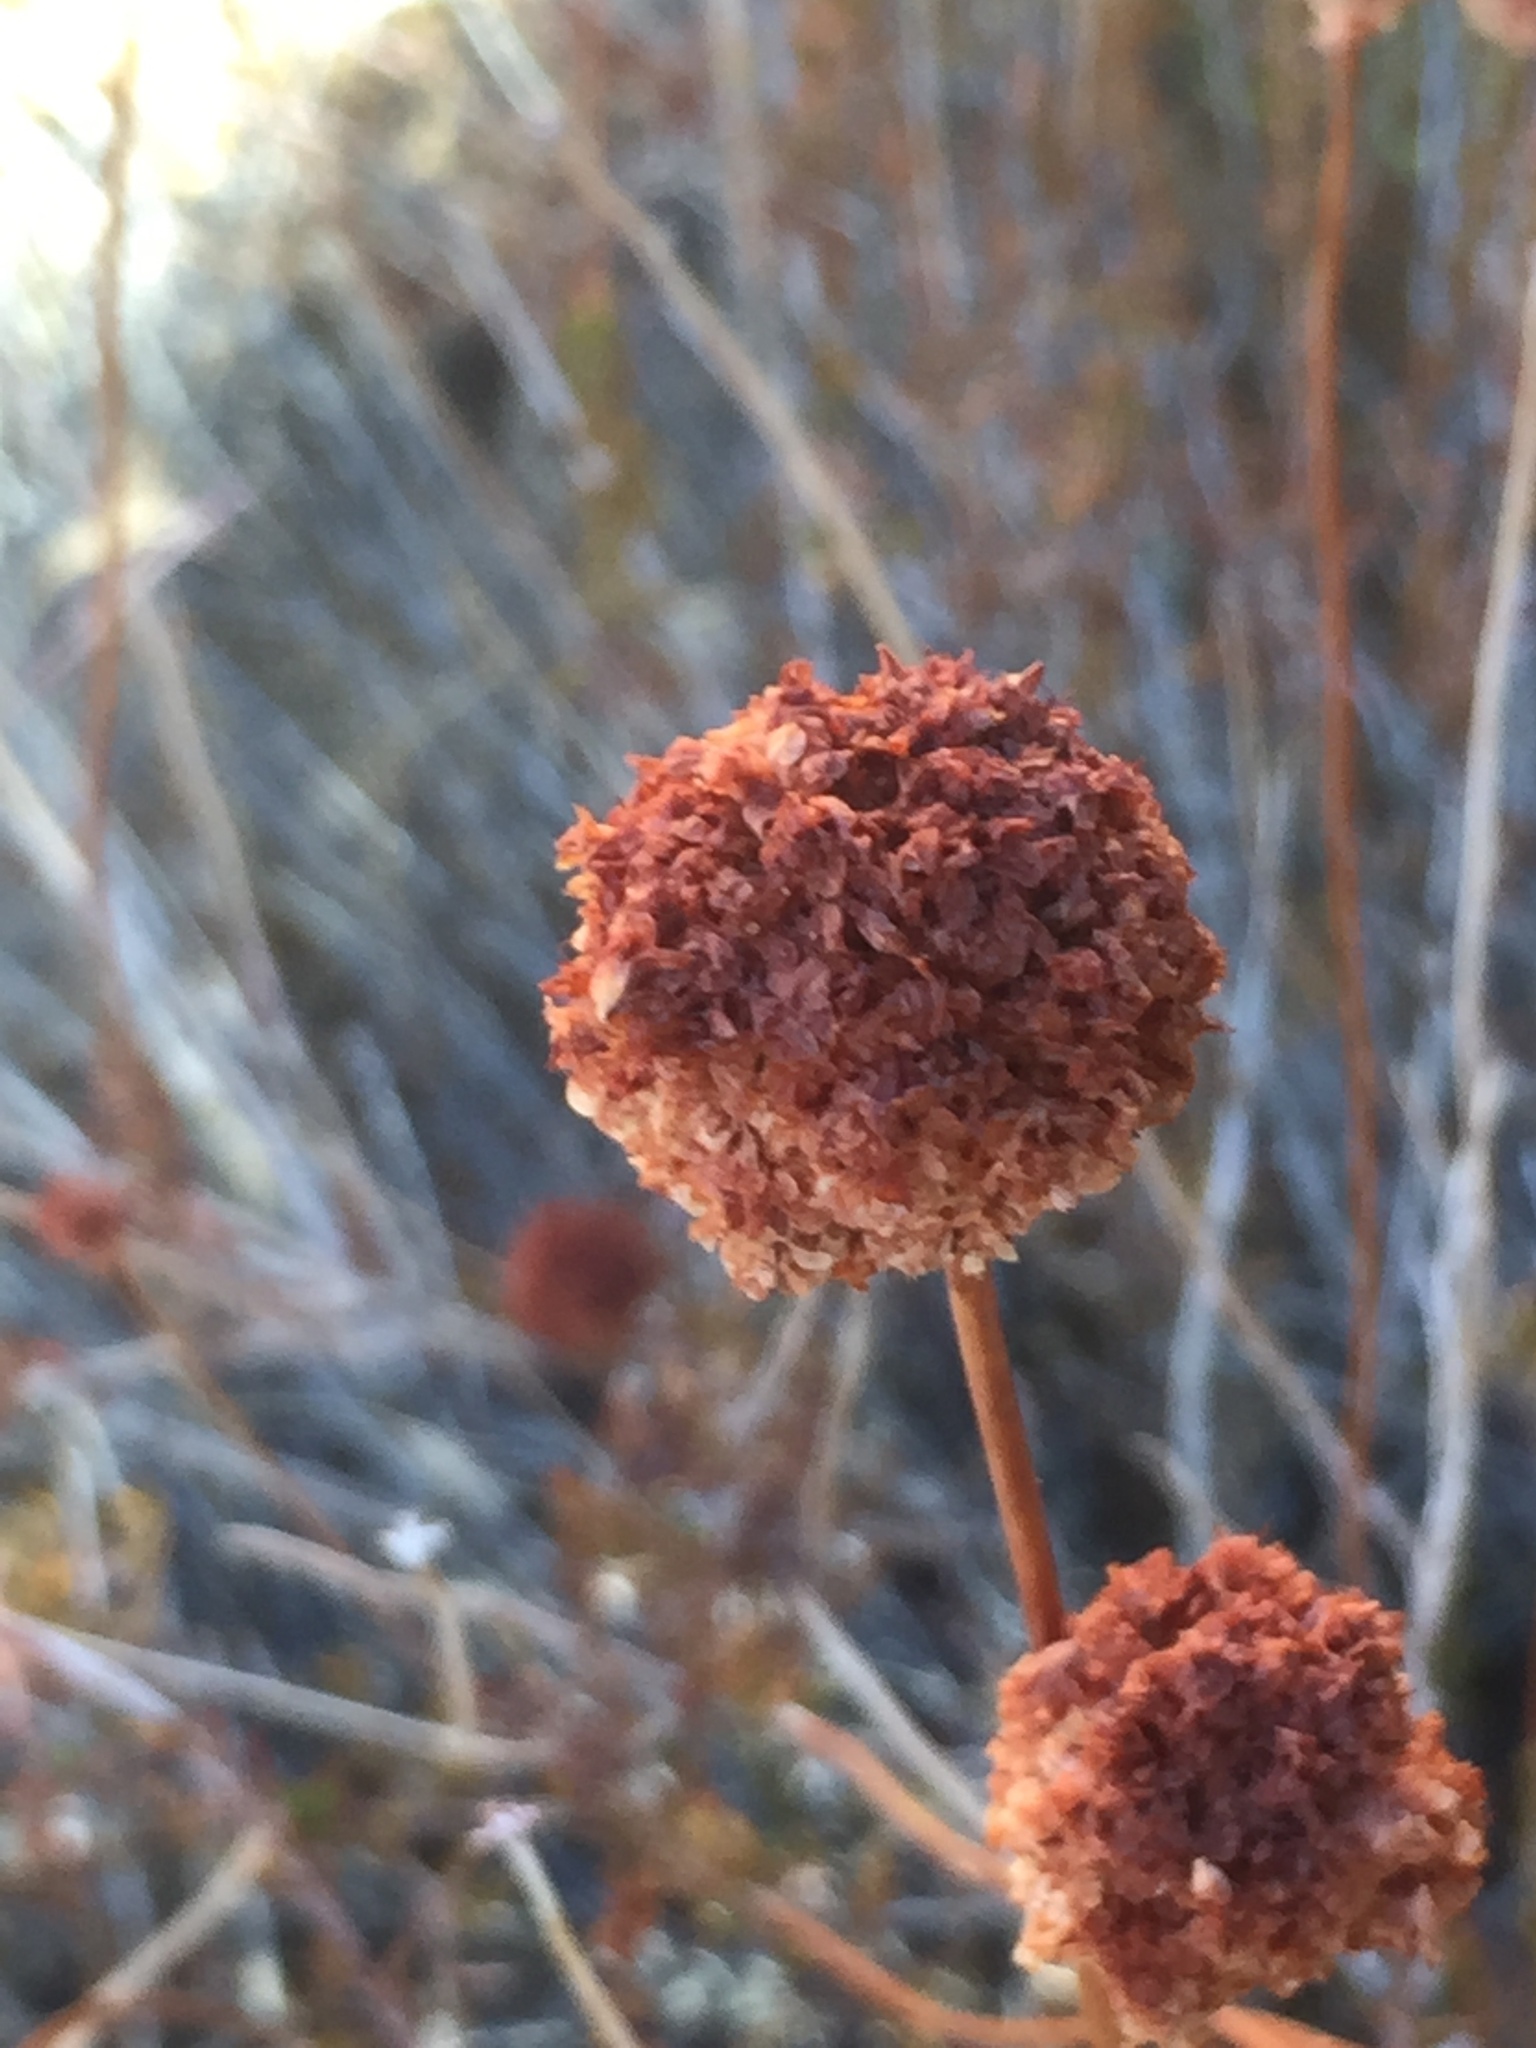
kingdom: Plantae
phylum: Tracheophyta
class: Magnoliopsida
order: Caryophyllales
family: Polygonaceae
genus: Eriogonum
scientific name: Eriogonum fasciculatum
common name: California wild buckwheat
